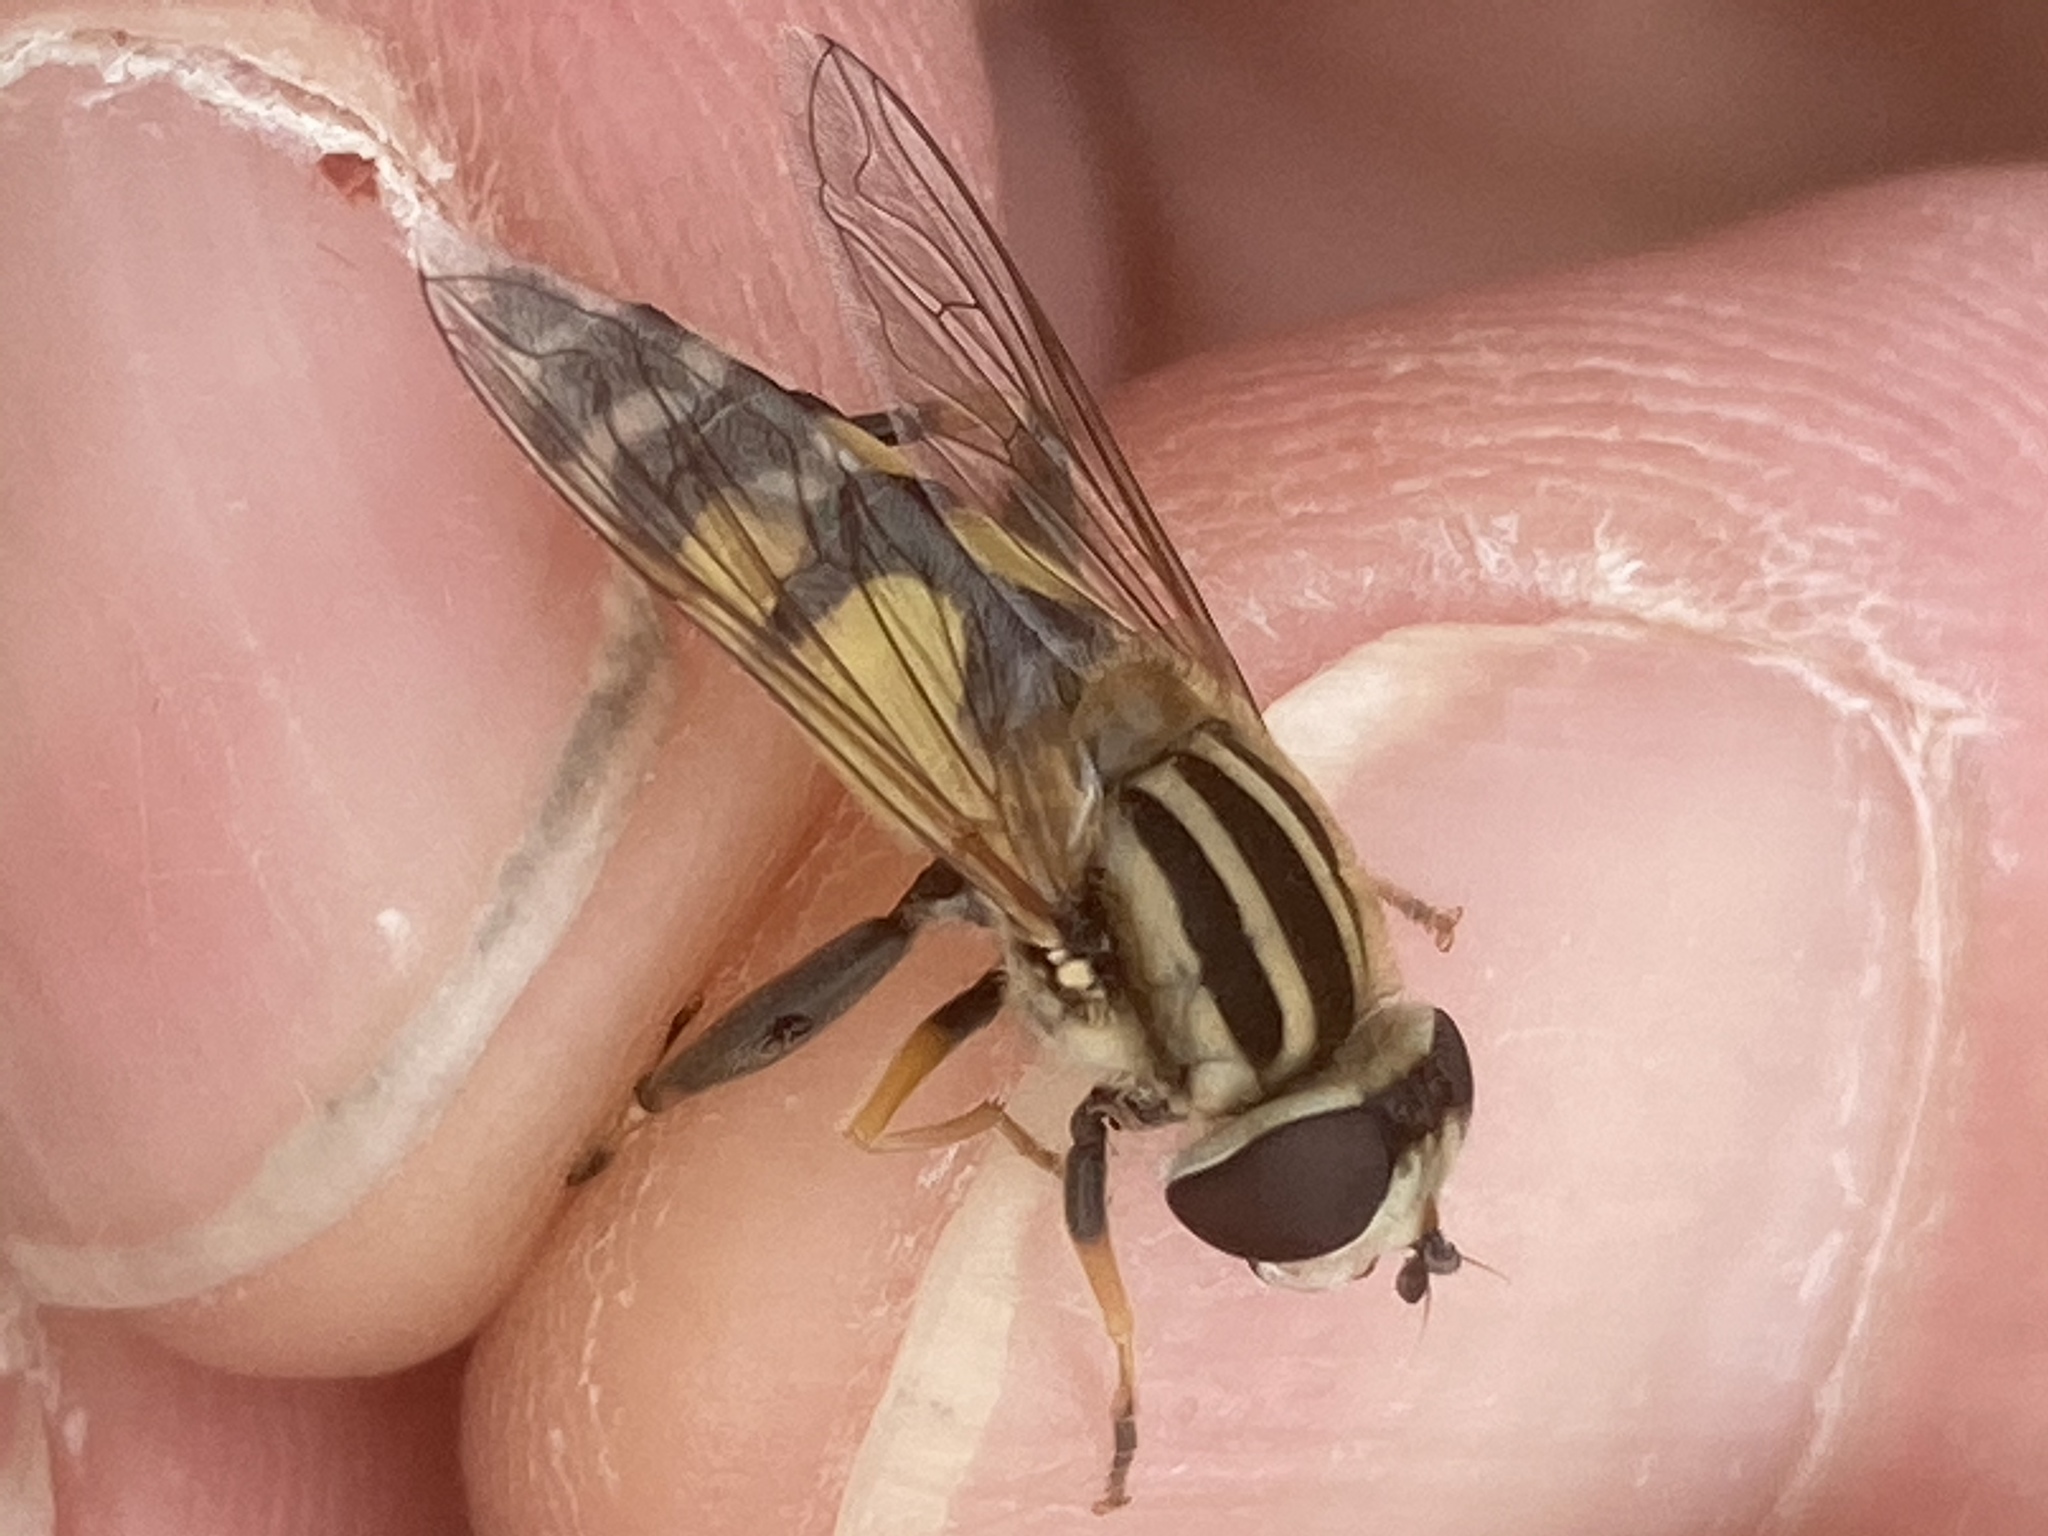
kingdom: Animalia
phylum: Arthropoda
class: Insecta
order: Diptera
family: Syrphidae
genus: Helophilus
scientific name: Helophilus trivittatus
